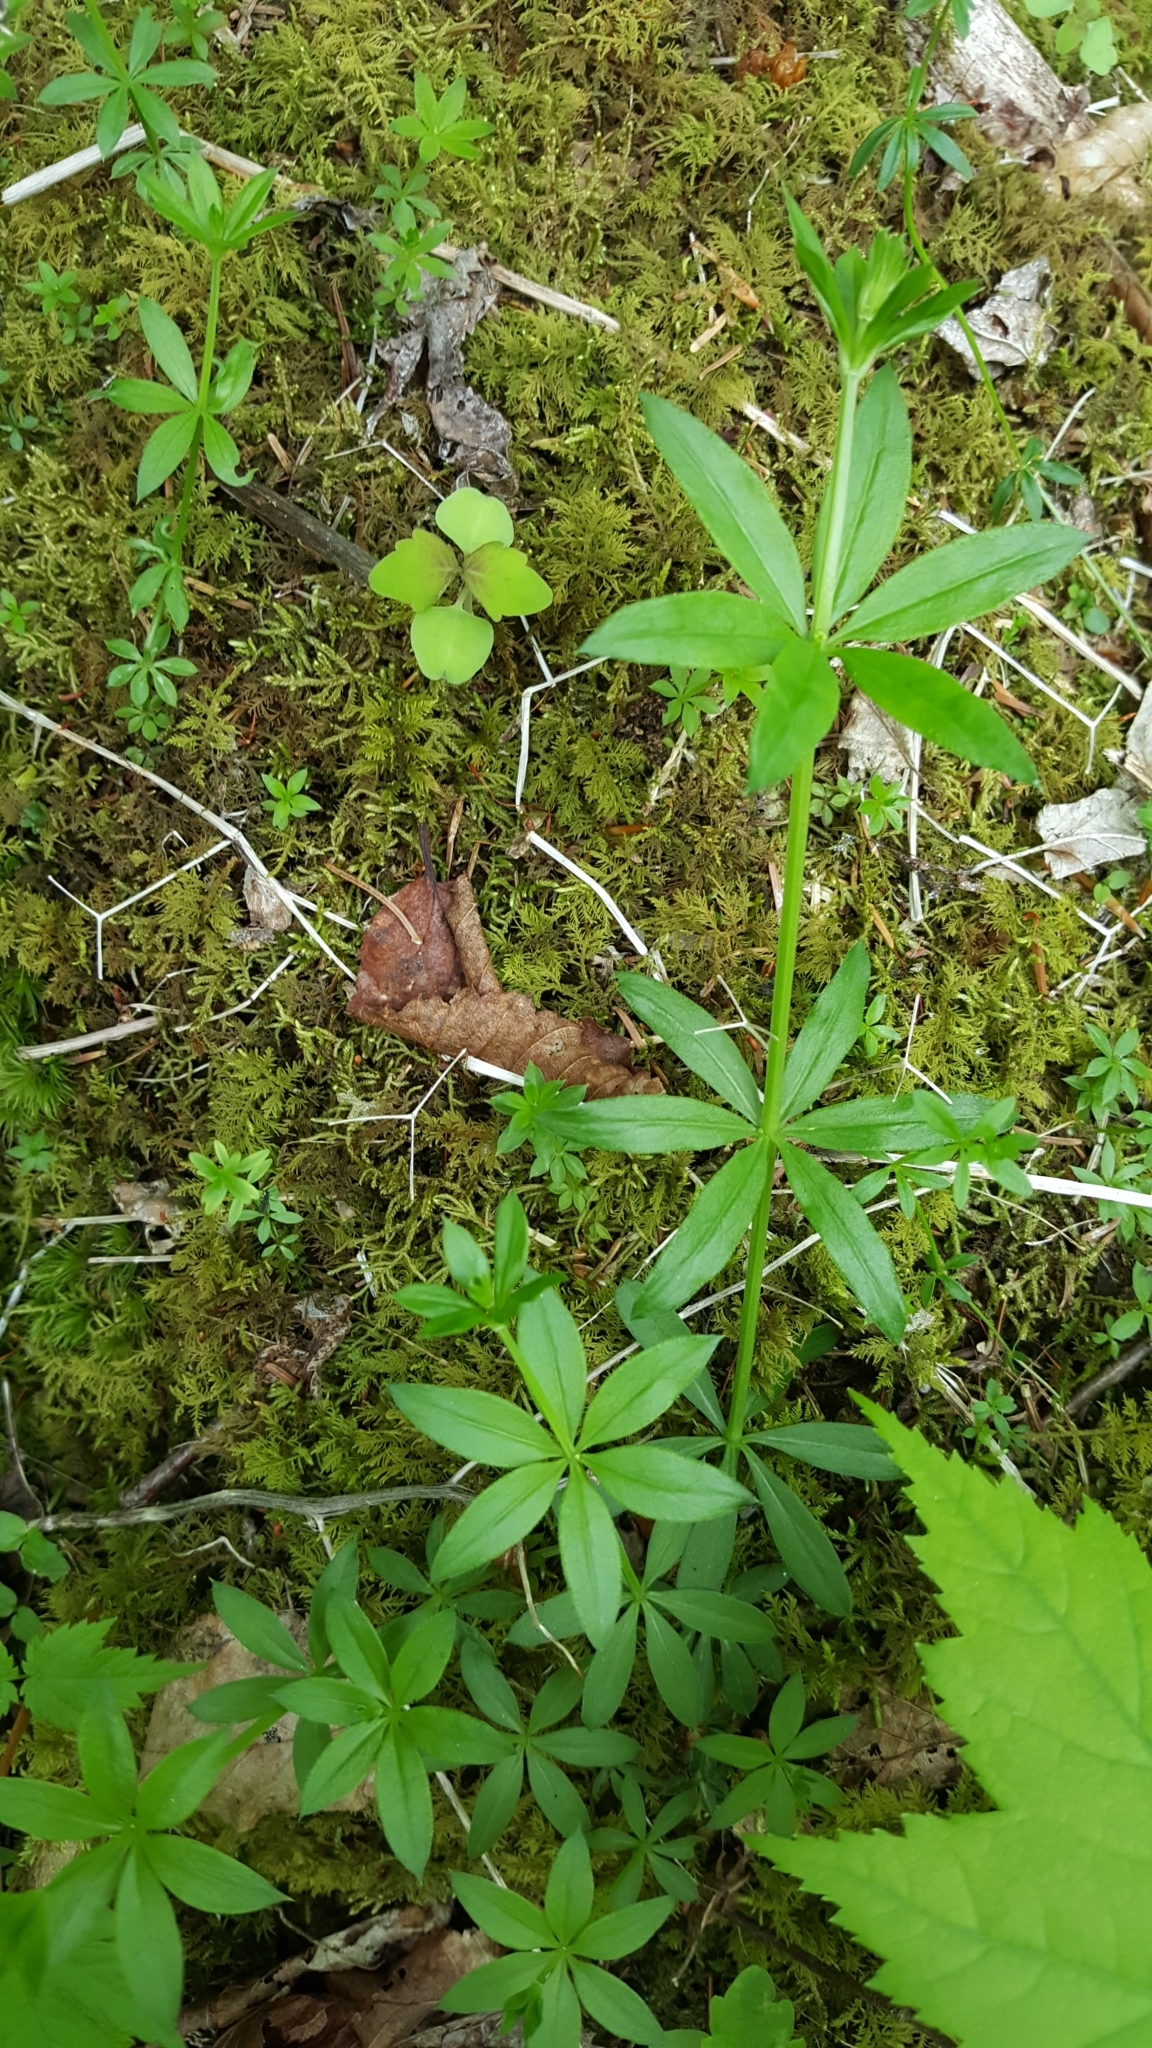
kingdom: Plantae
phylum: Tracheophyta
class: Magnoliopsida
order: Gentianales
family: Rubiaceae
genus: Galium
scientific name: Galium triflorum
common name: Fragrant bedstraw
